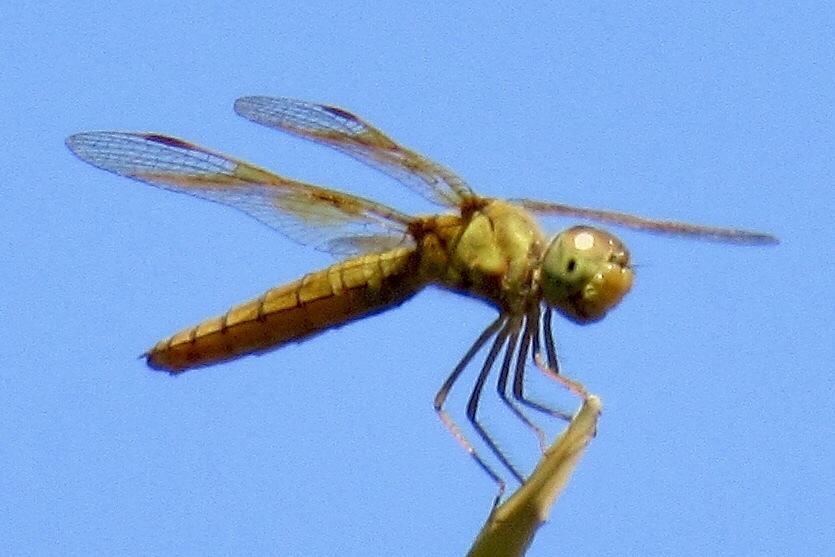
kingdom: Animalia
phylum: Arthropoda
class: Insecta
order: Odonata
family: Libellulidae
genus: Perithemis
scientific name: Perithemis intensa
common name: Mexican amberwing
